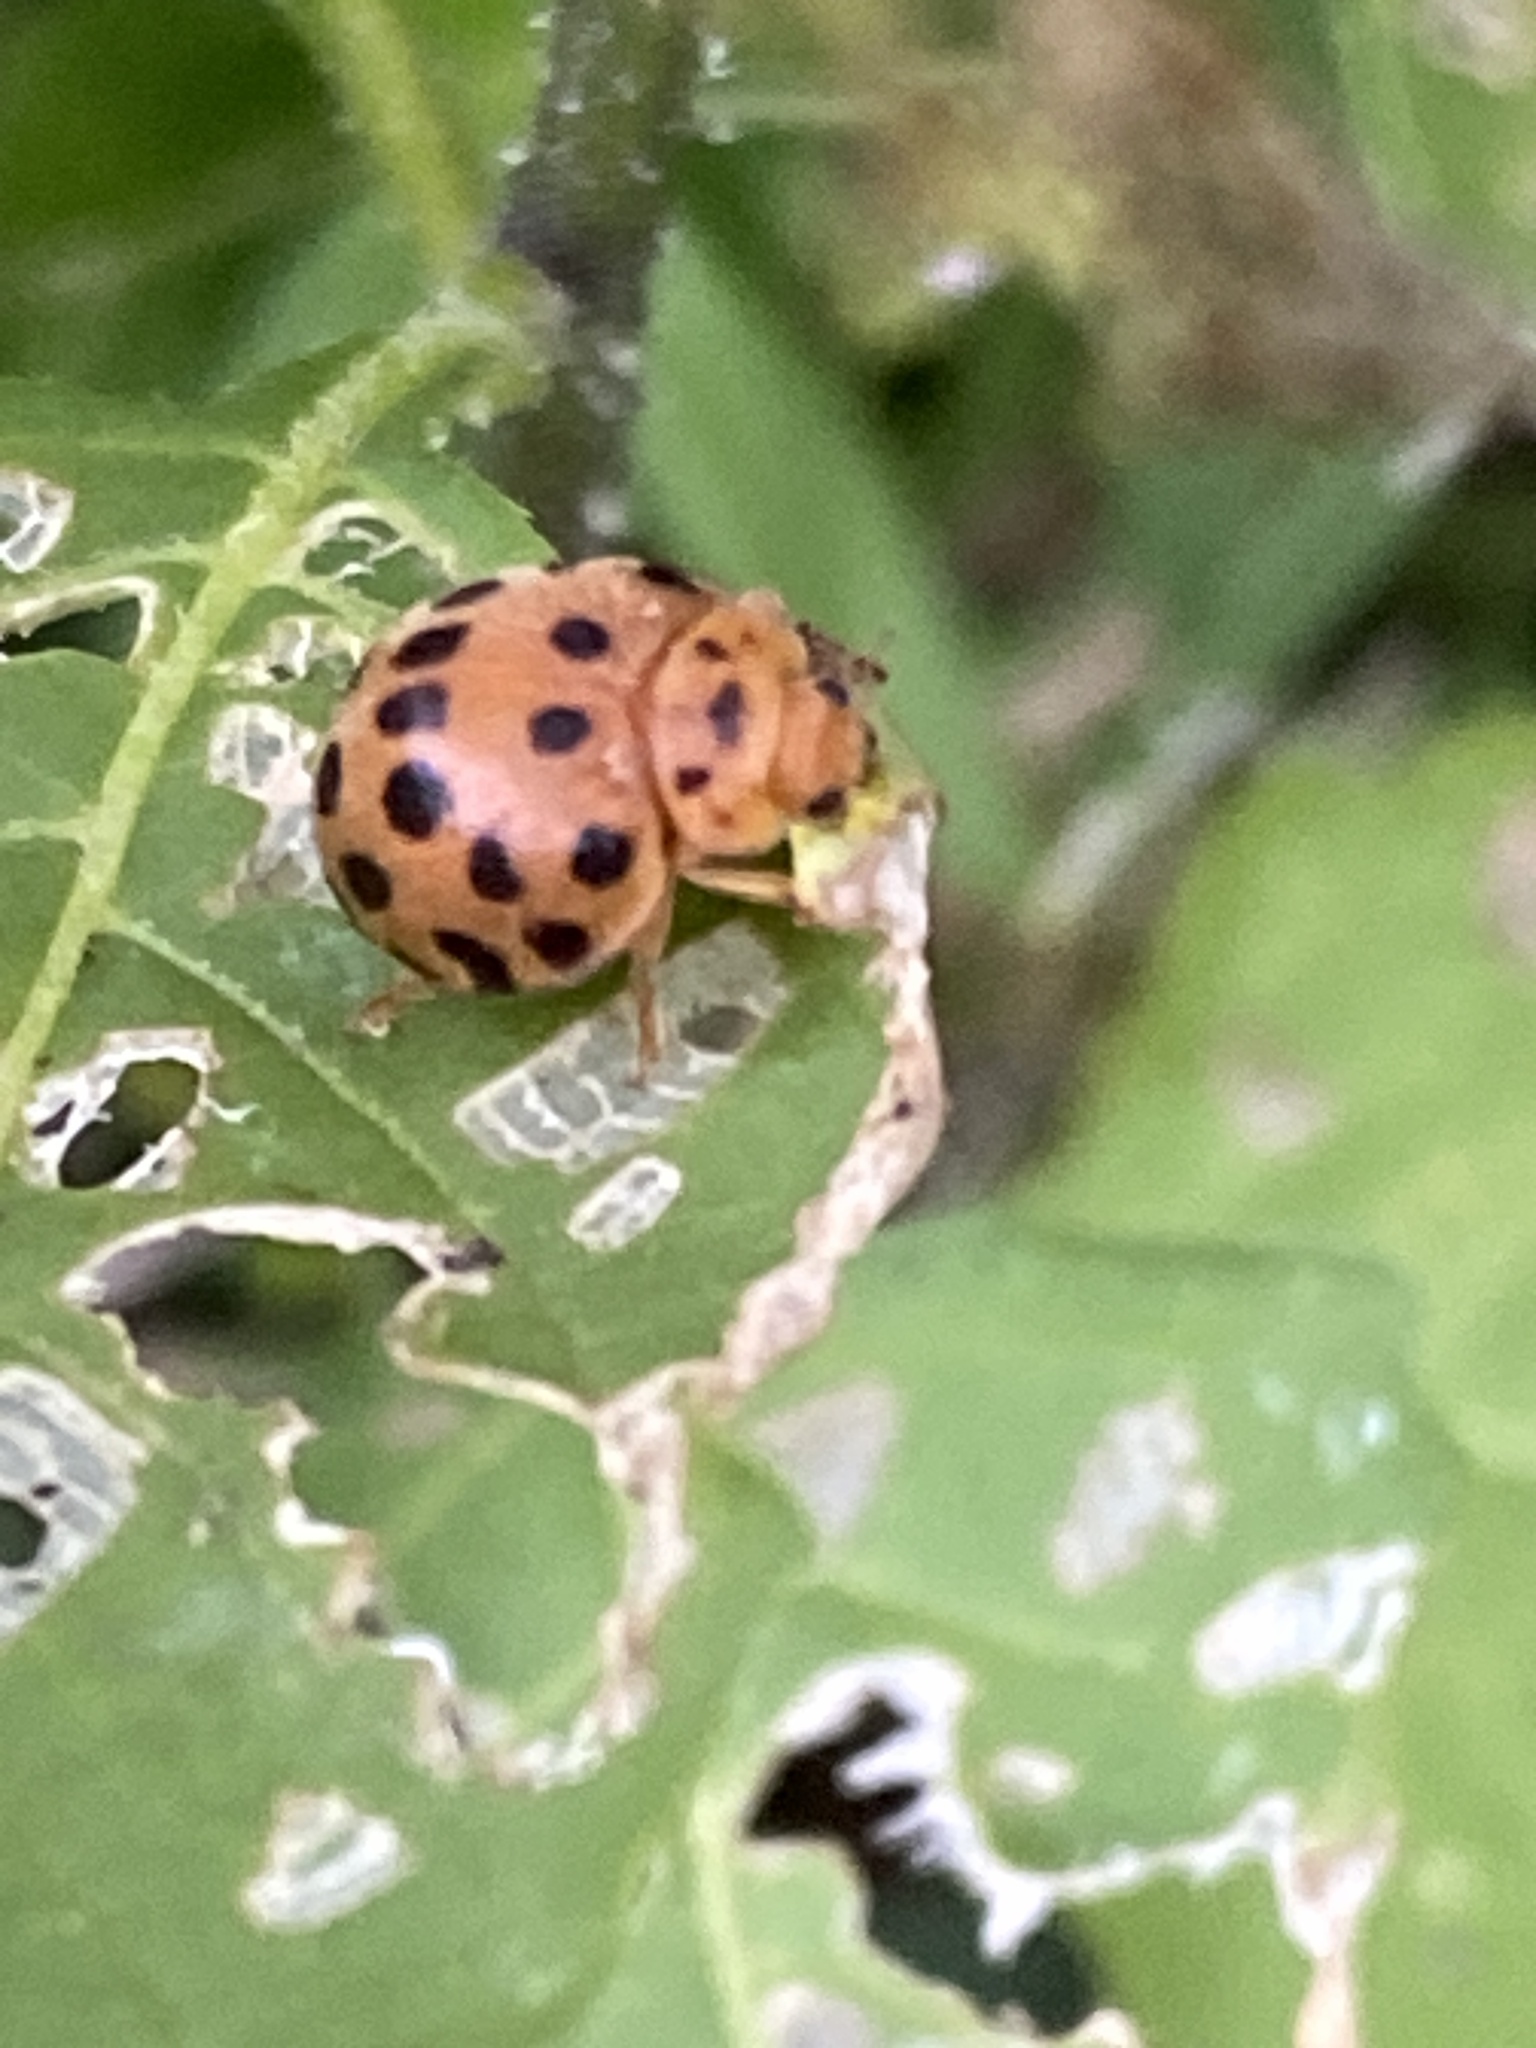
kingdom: Animalia
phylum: Arthropoda
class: Insecta
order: Coleoptera
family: Coccinellidae
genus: Henosepilachna
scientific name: Henosepilachna vigintioctopunctata
